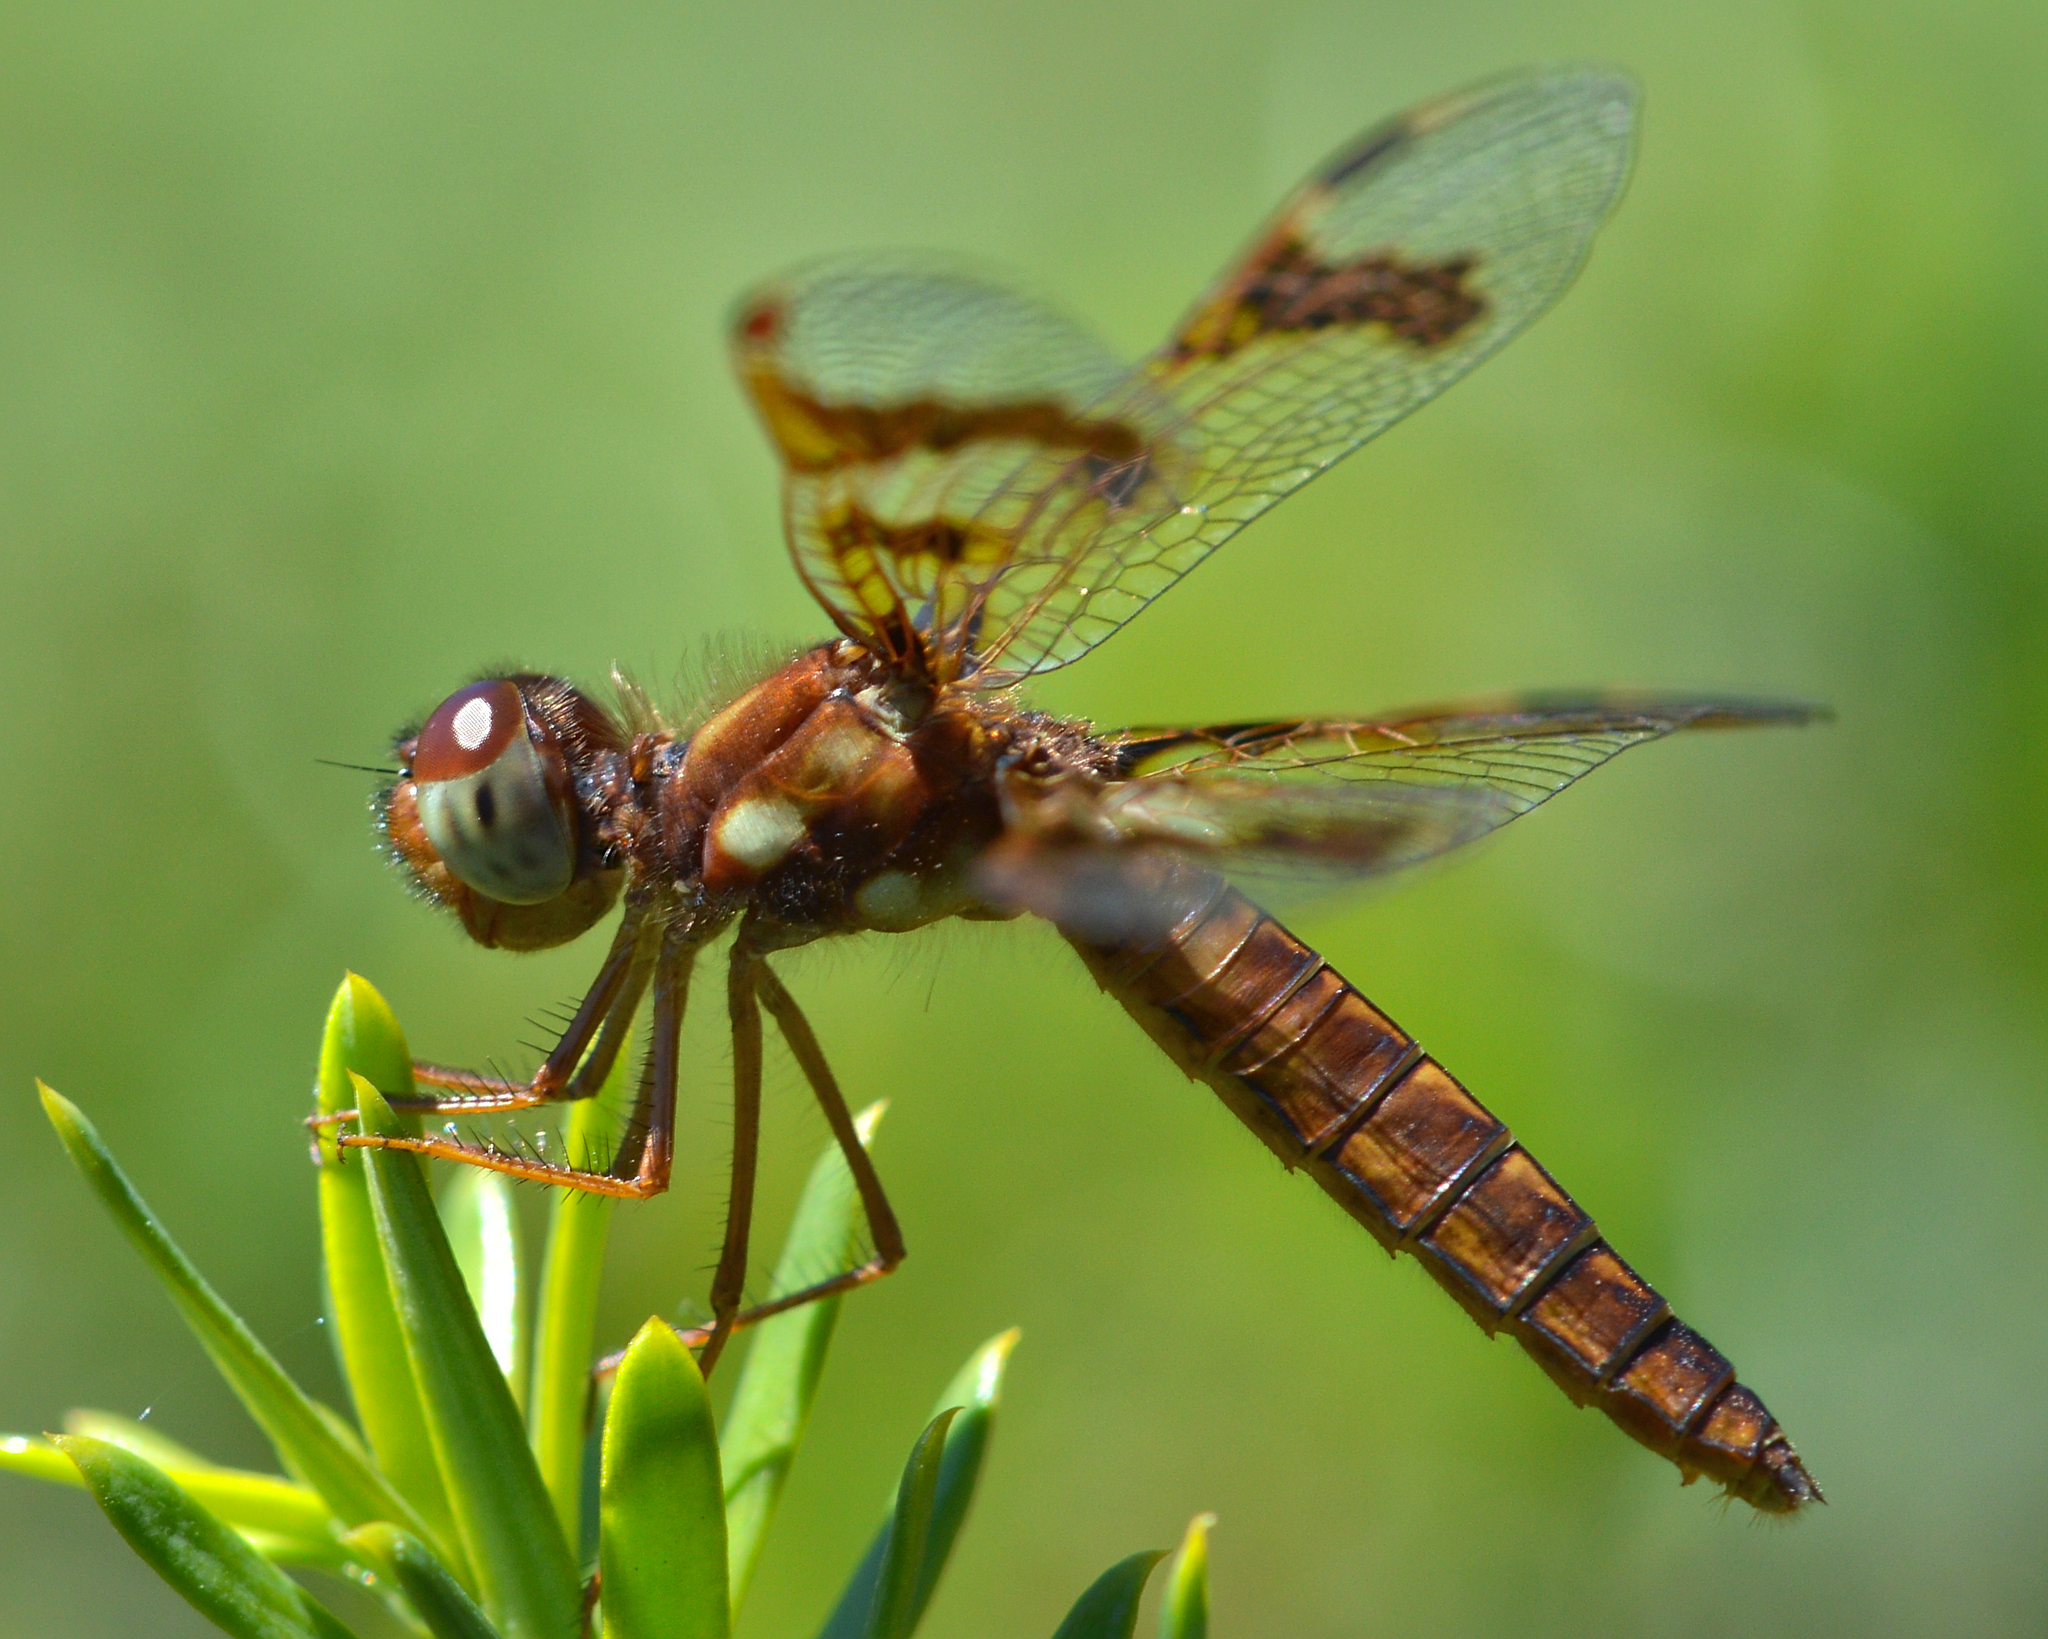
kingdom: Animalia
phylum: Arthropoda
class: Insecta
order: Odonata
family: Libellulidae
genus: Perithemis
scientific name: Perithemis tenera
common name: Eastern amberwing
